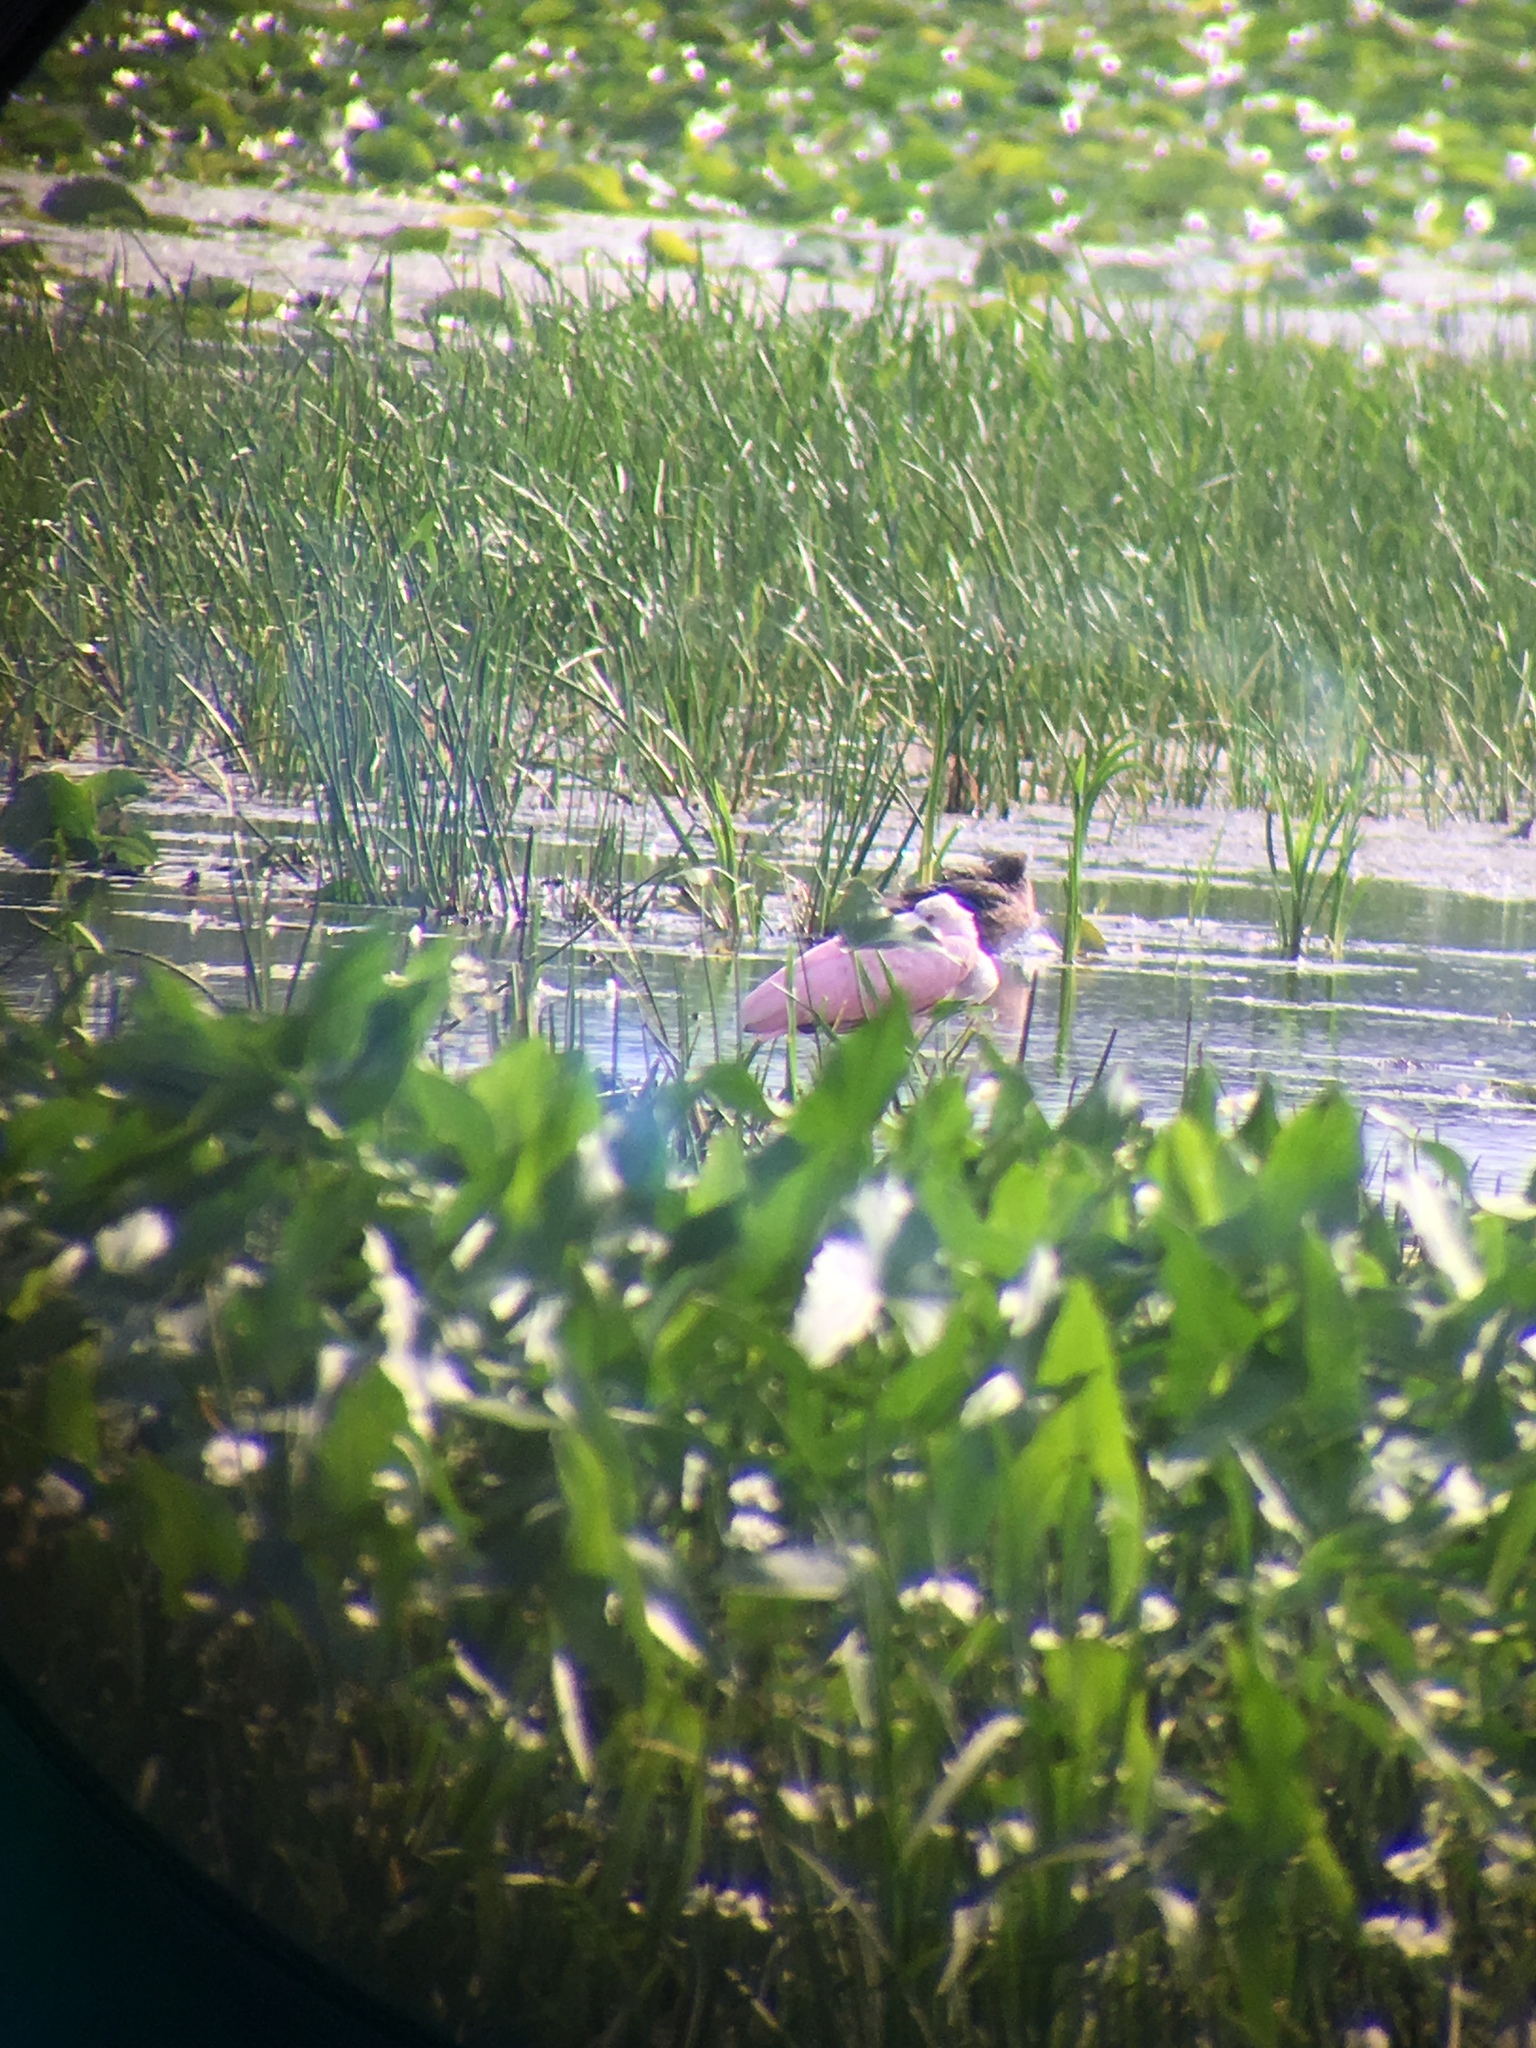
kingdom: Animalia
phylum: Chordata
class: Aves
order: Pelecaniformes
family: Threskiornithidae
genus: Platalea
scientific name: Platalea ajaja
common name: Roseate spoonbill
